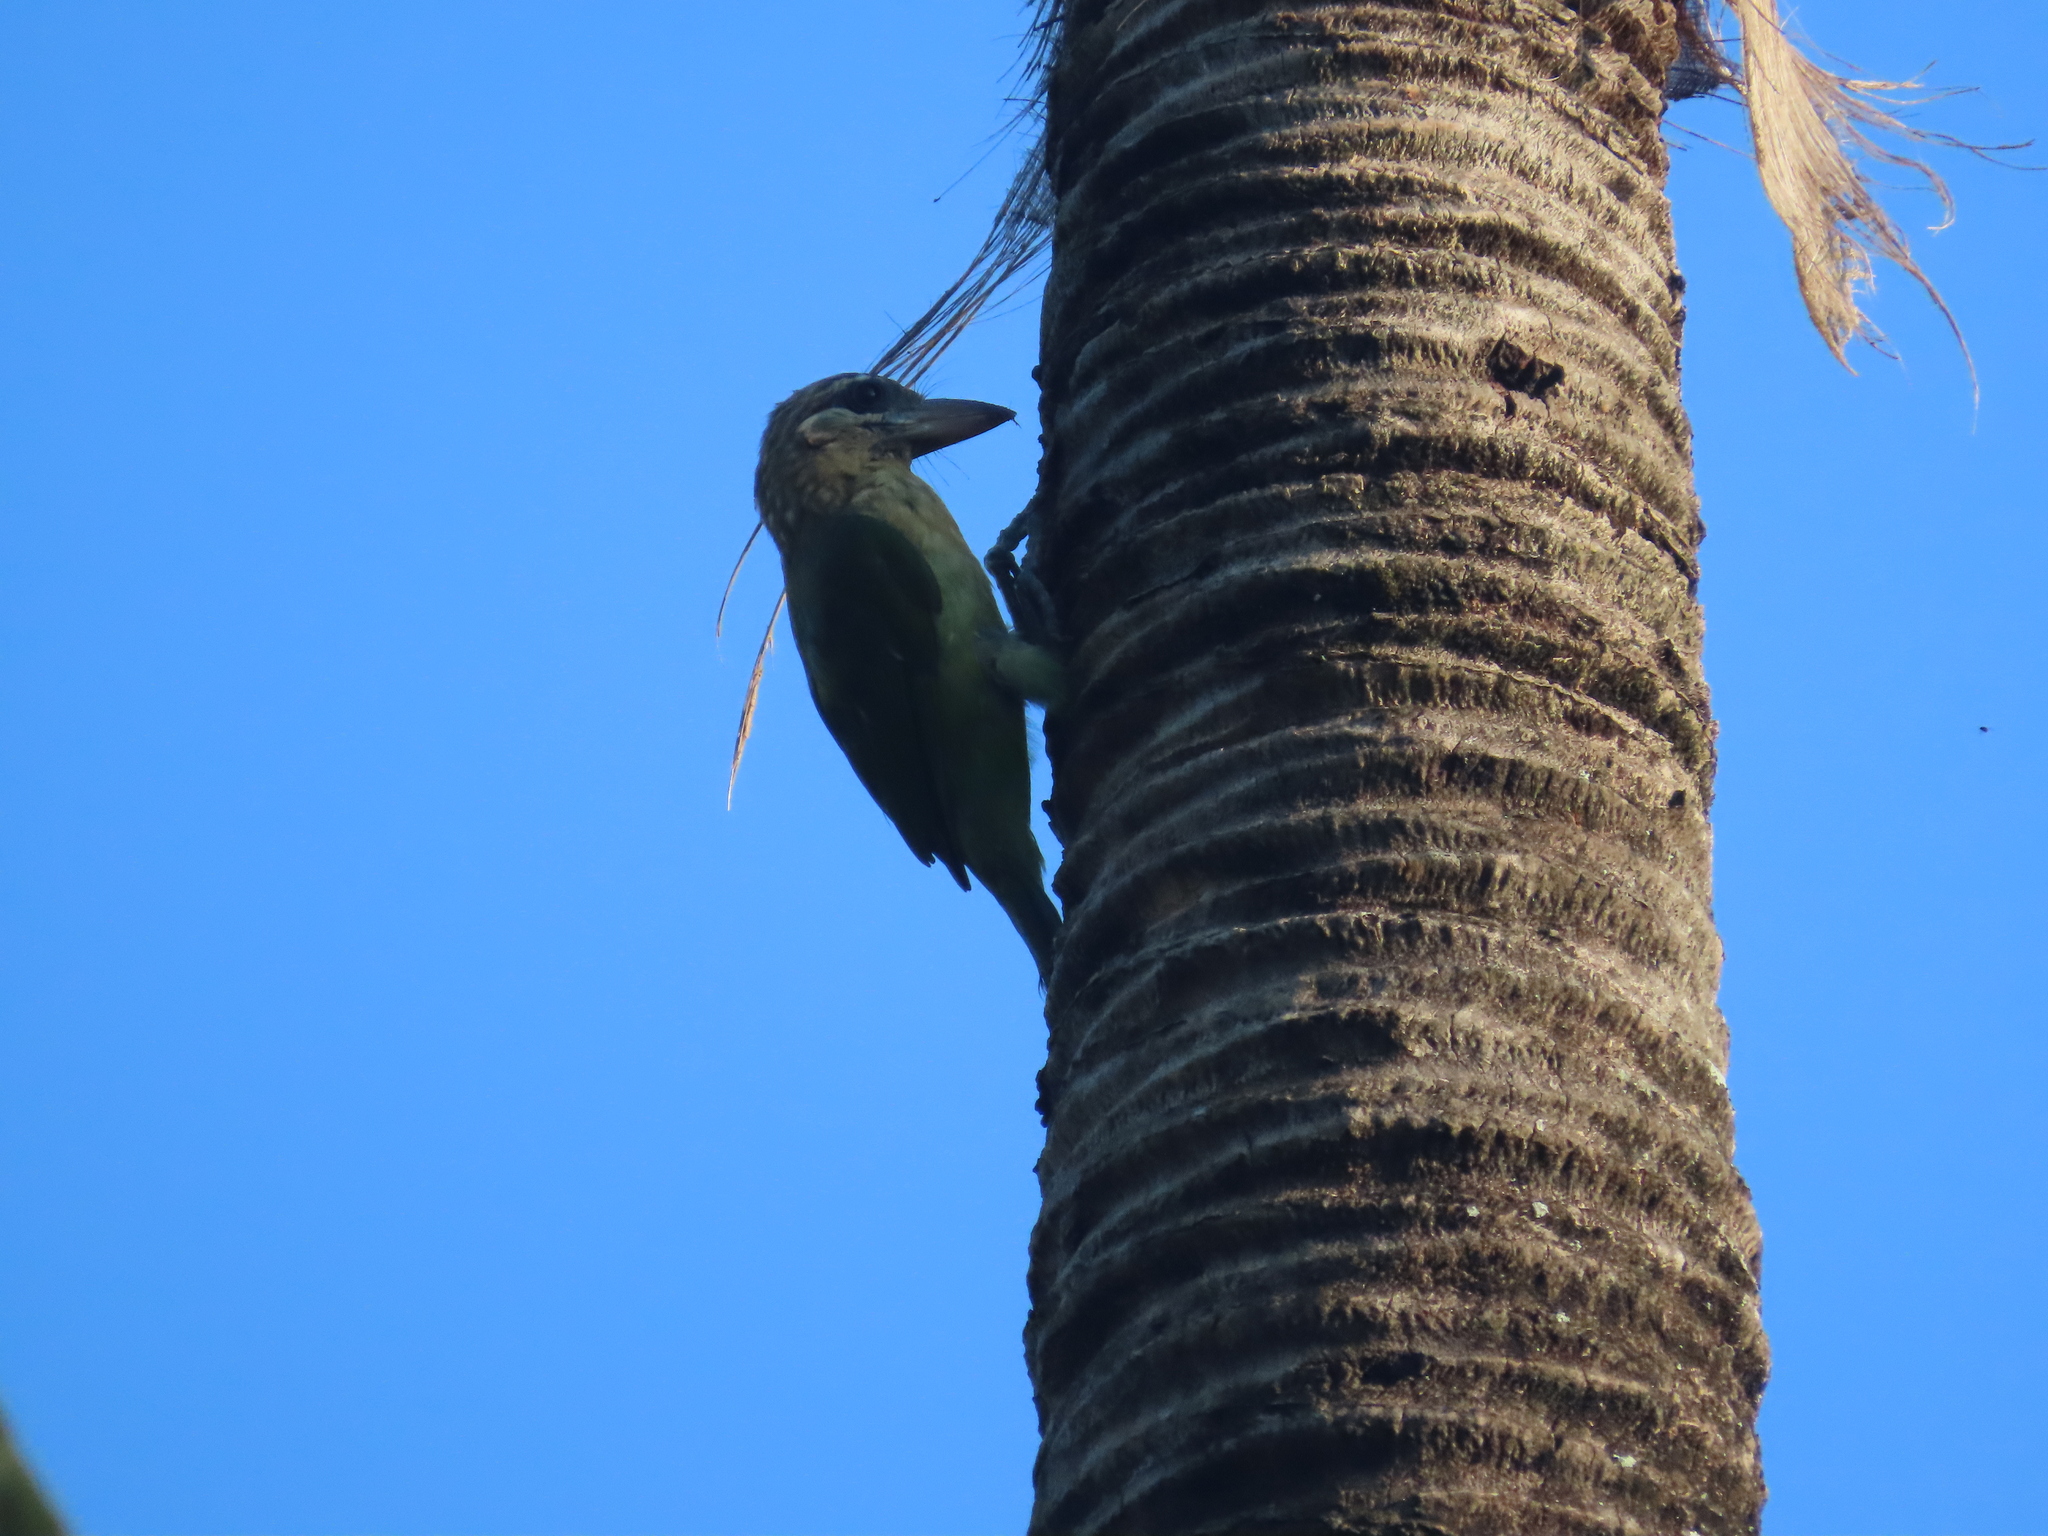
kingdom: Animalia
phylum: Chordata
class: Aves
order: Piciformes
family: Megalaimidae
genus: Psilopogon
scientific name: Psilopogon viridis
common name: White-cheeked barbet
